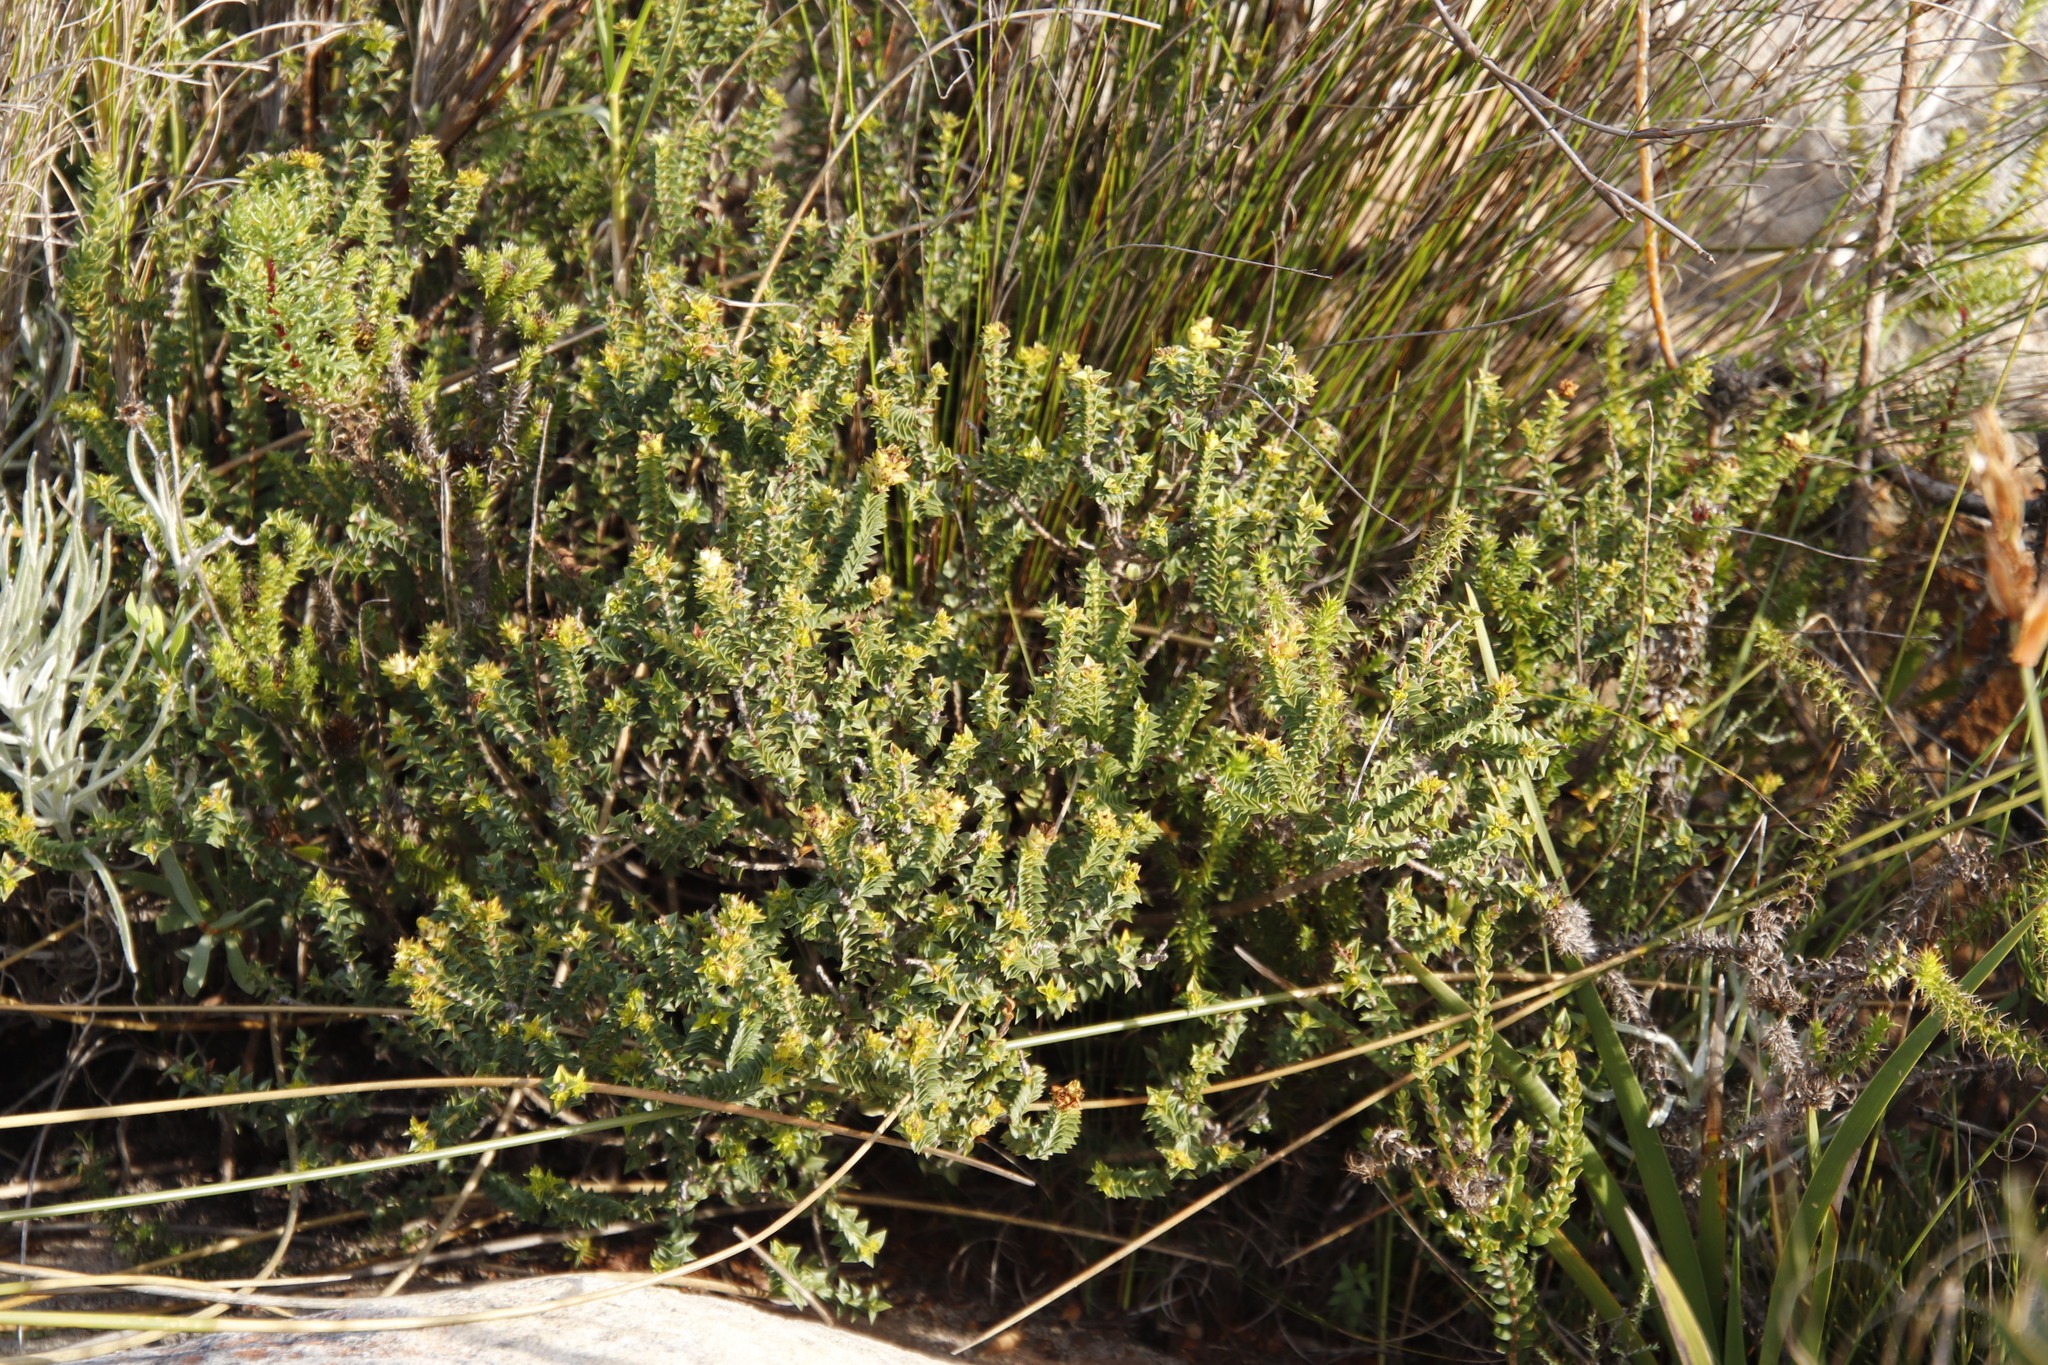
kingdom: Plantae
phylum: Tracheophyta
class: Magnoliopsida
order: Myrtales
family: Penaeaceae
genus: Penaea
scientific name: Penaea mucronata
